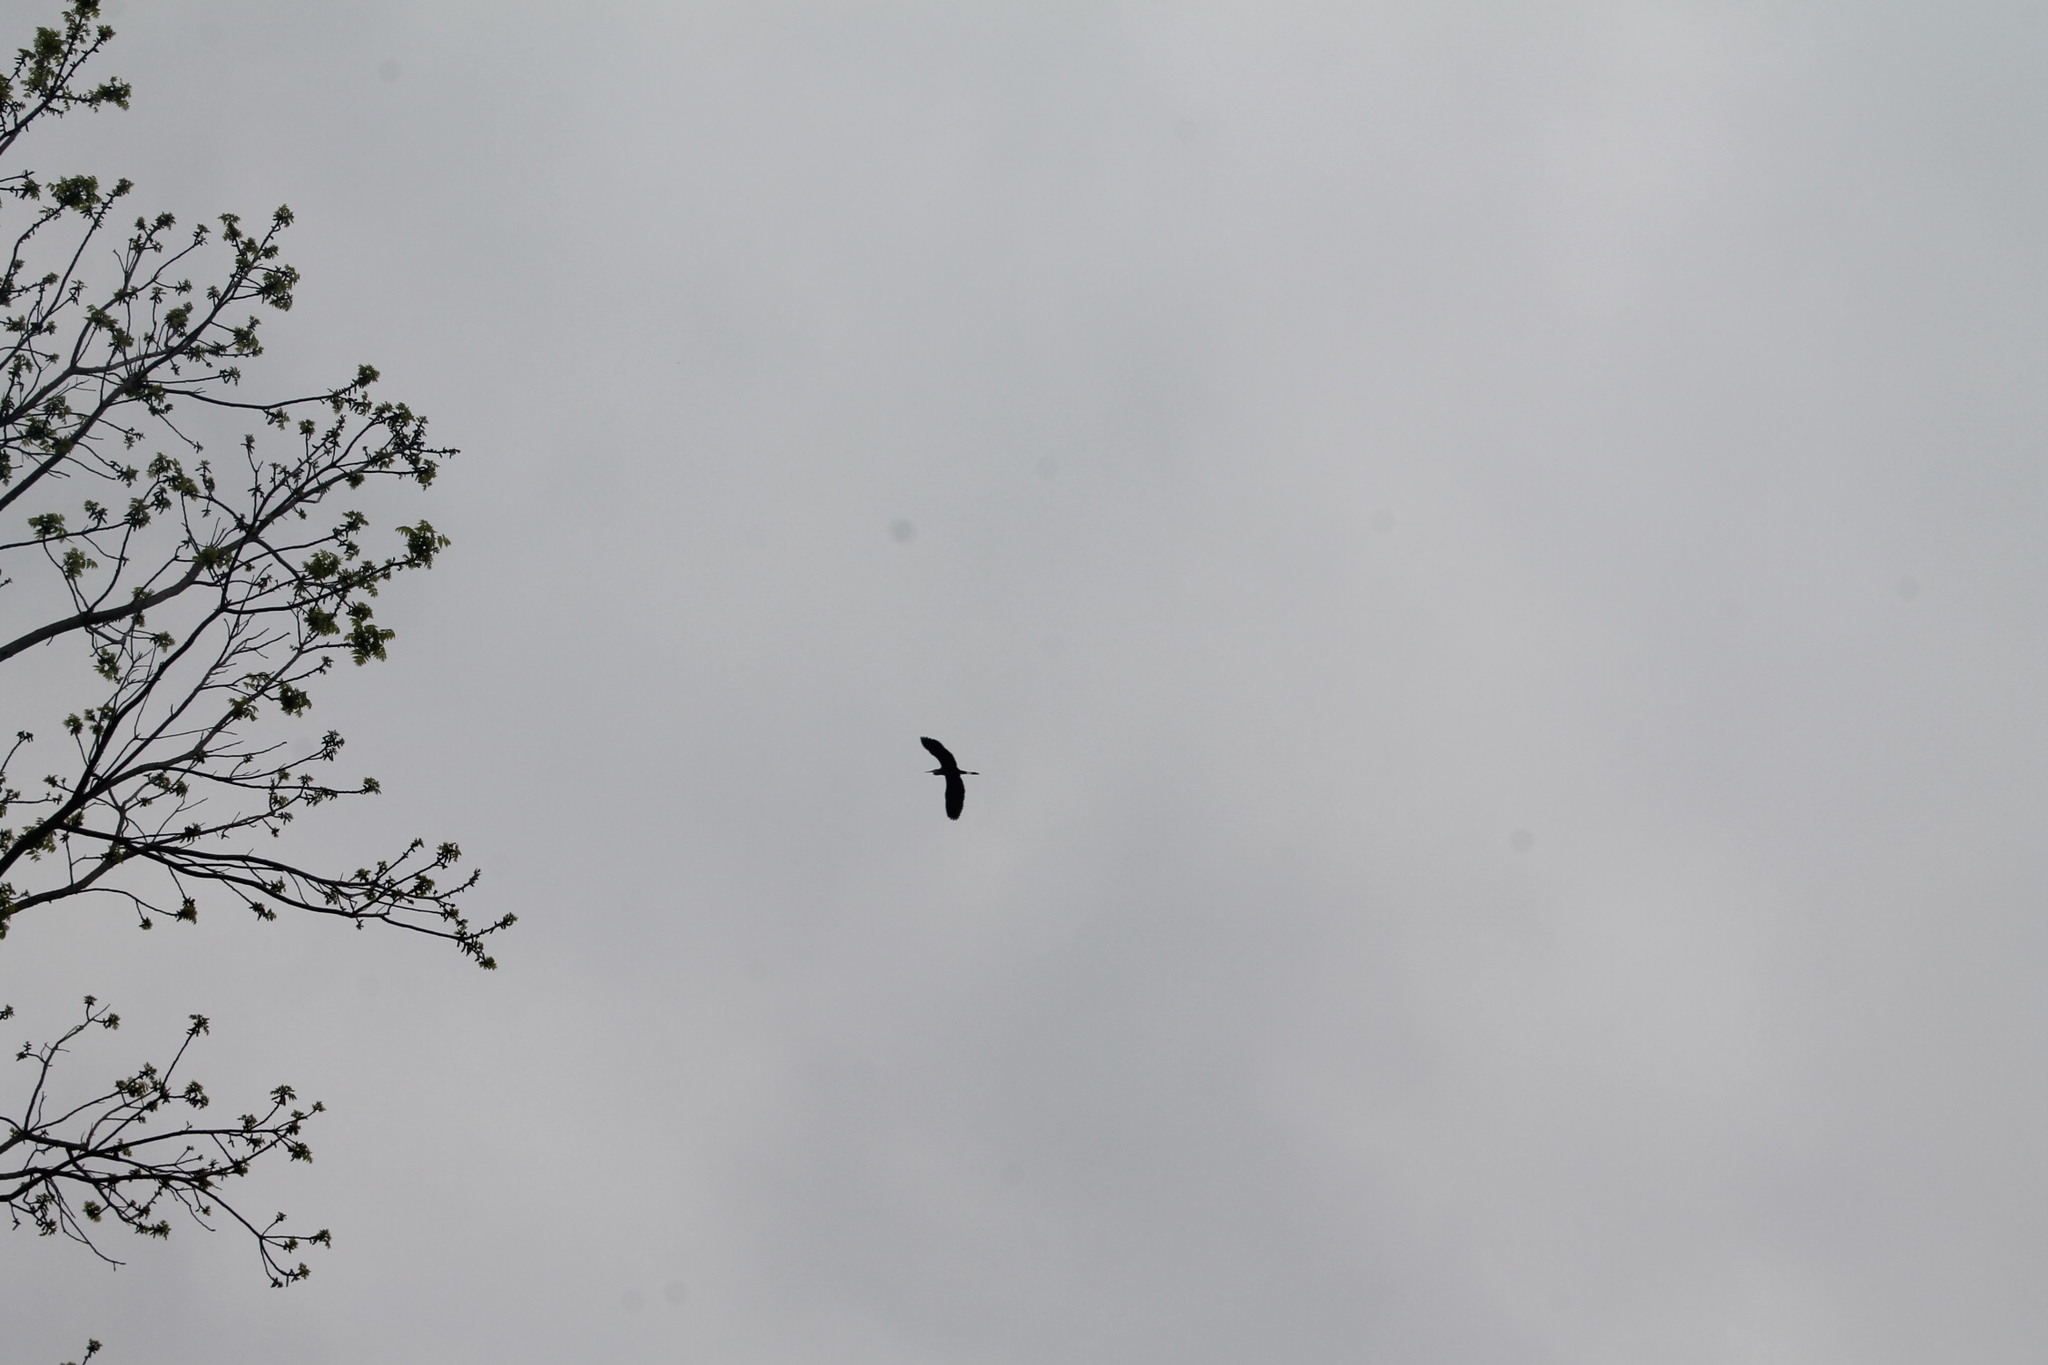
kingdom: Animalia
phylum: Chordata
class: Aves
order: Pelecaniformes
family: Ardeidae
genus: Ardea
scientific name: Ardea herodias
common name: Great blue heron
